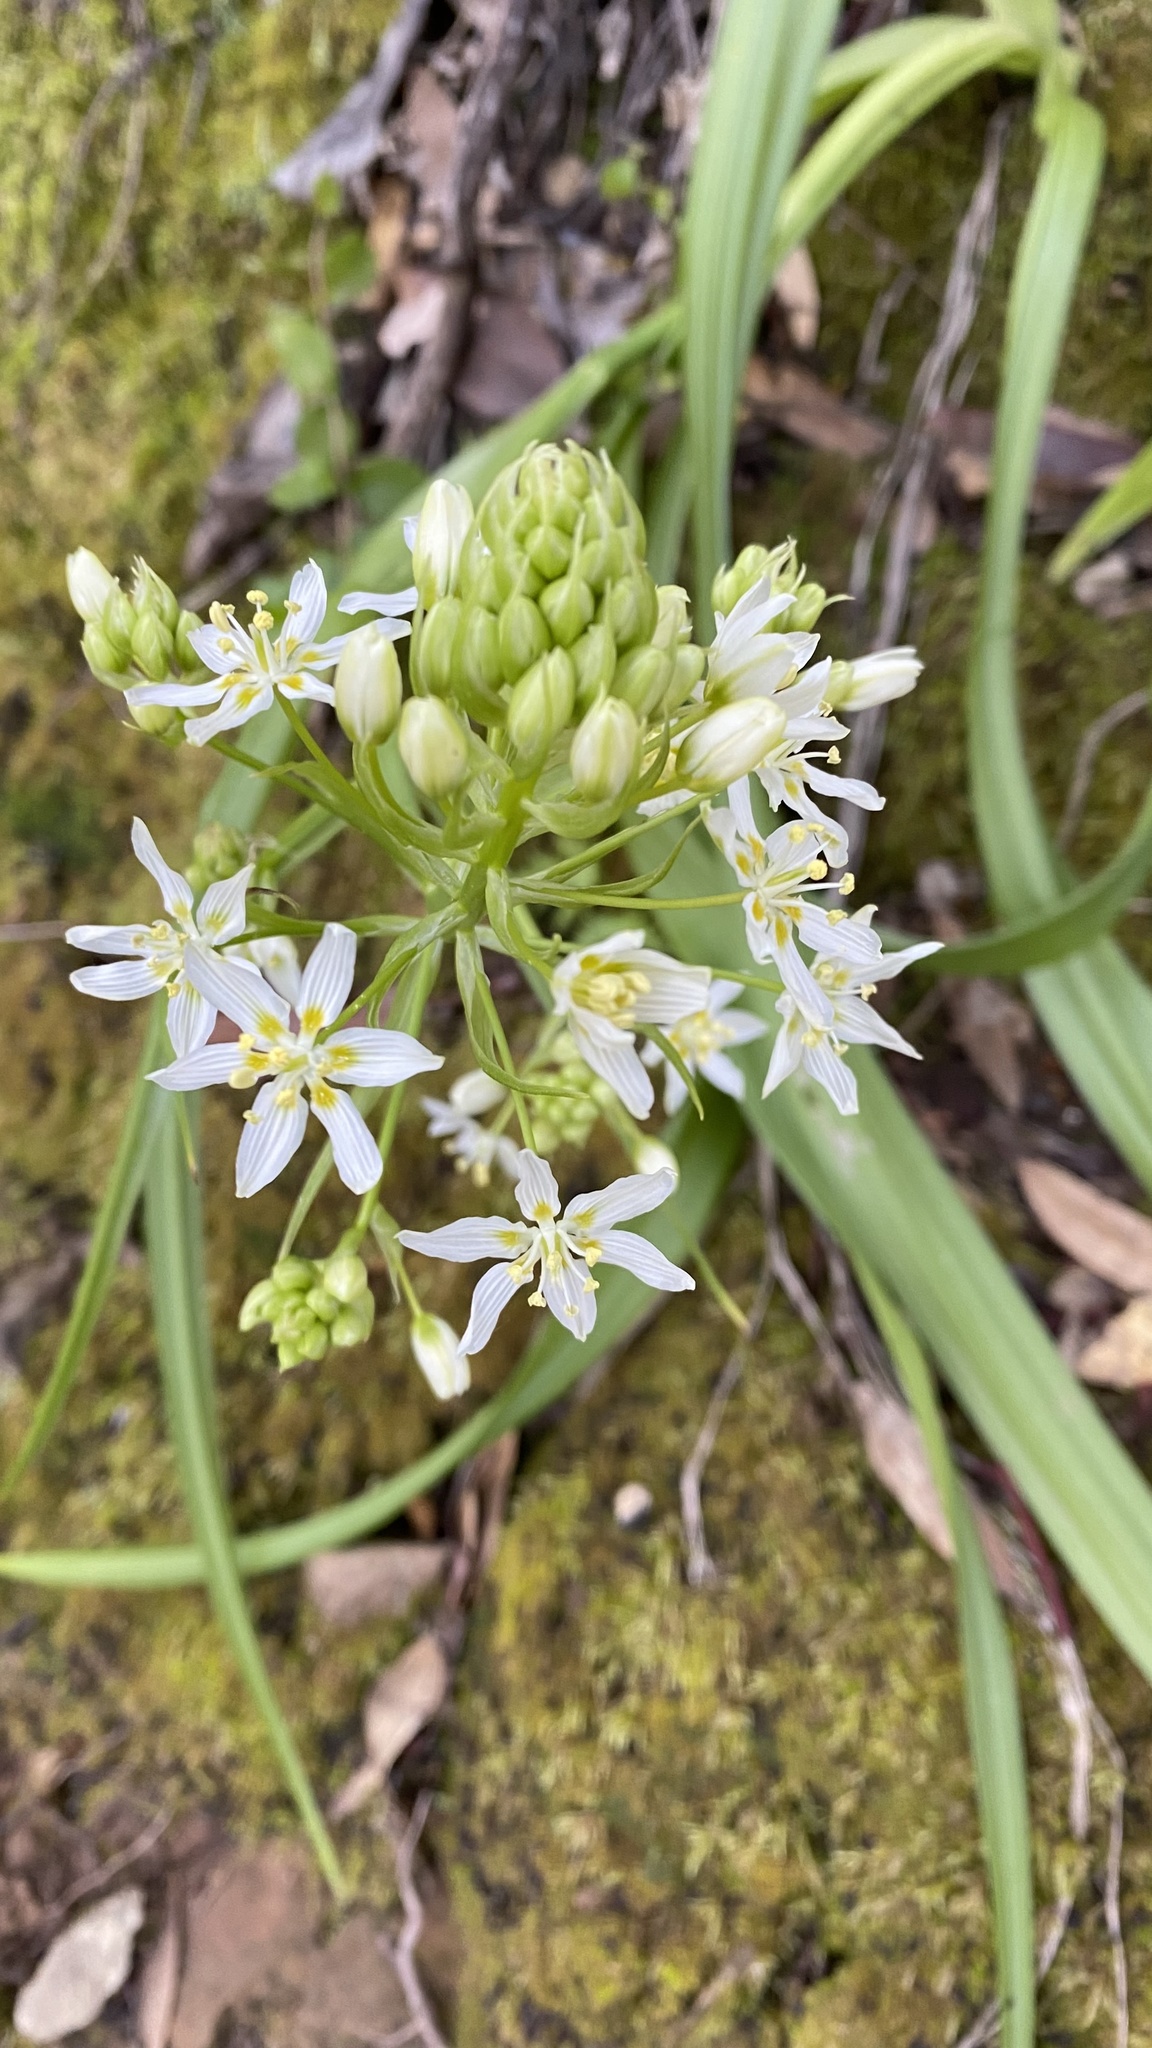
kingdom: Plantae
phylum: Tracheophyta
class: Liliopsida
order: Liliales
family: Melanthiaceae
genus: Toxicoscordion
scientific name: Toxicoscordion fremontii
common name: Fremont's death camas
